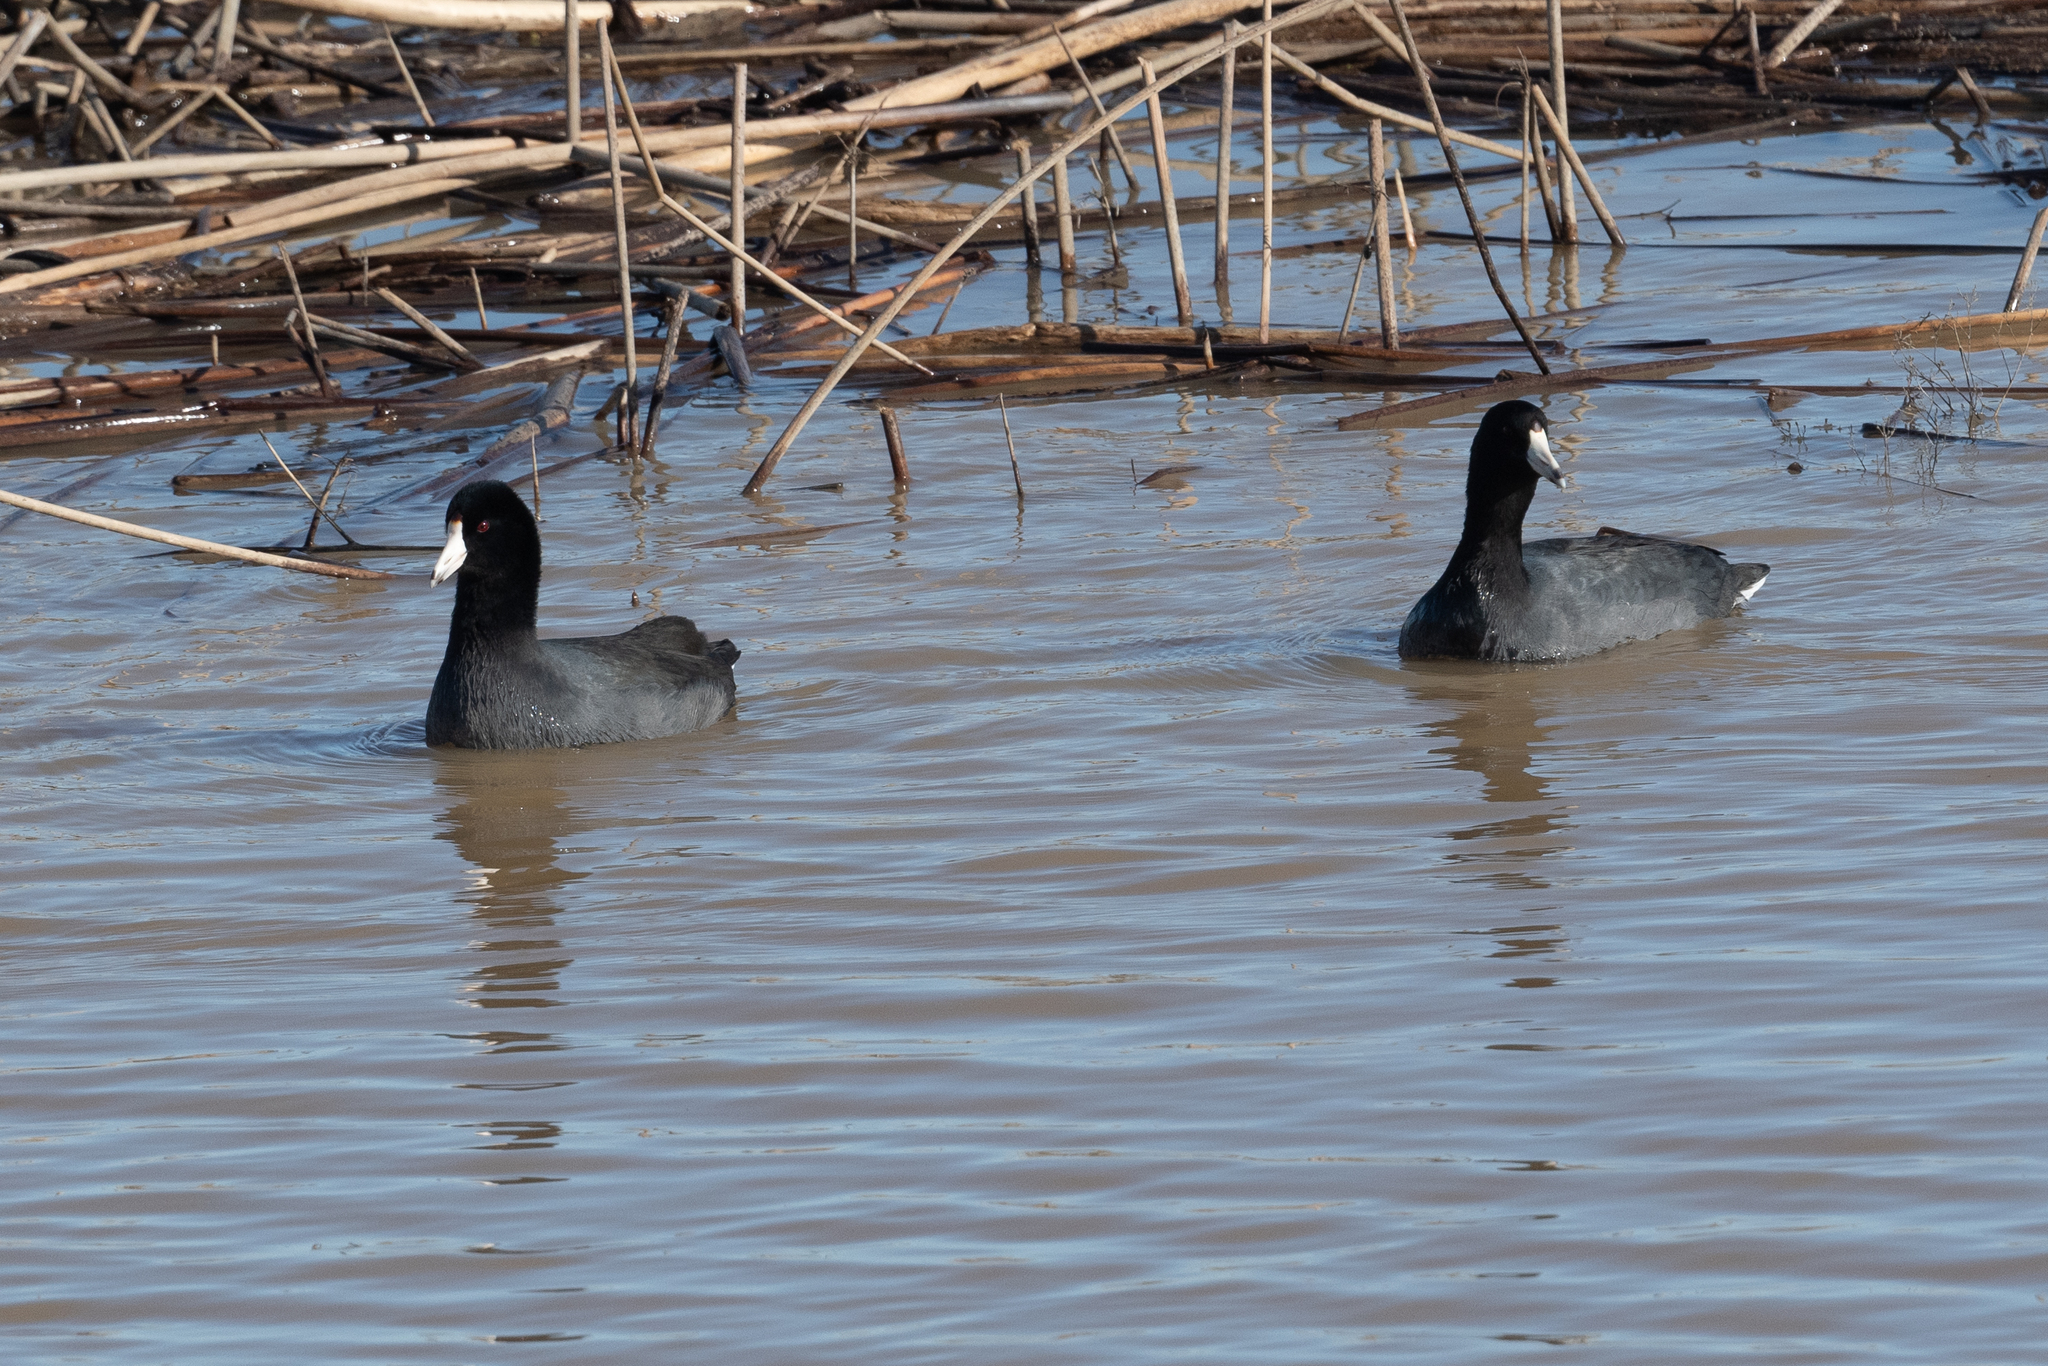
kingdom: Animalia
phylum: Chordata
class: Aves
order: Gruiformes
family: Rallidae
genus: Fulica
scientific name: Fulica americana
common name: American coot
